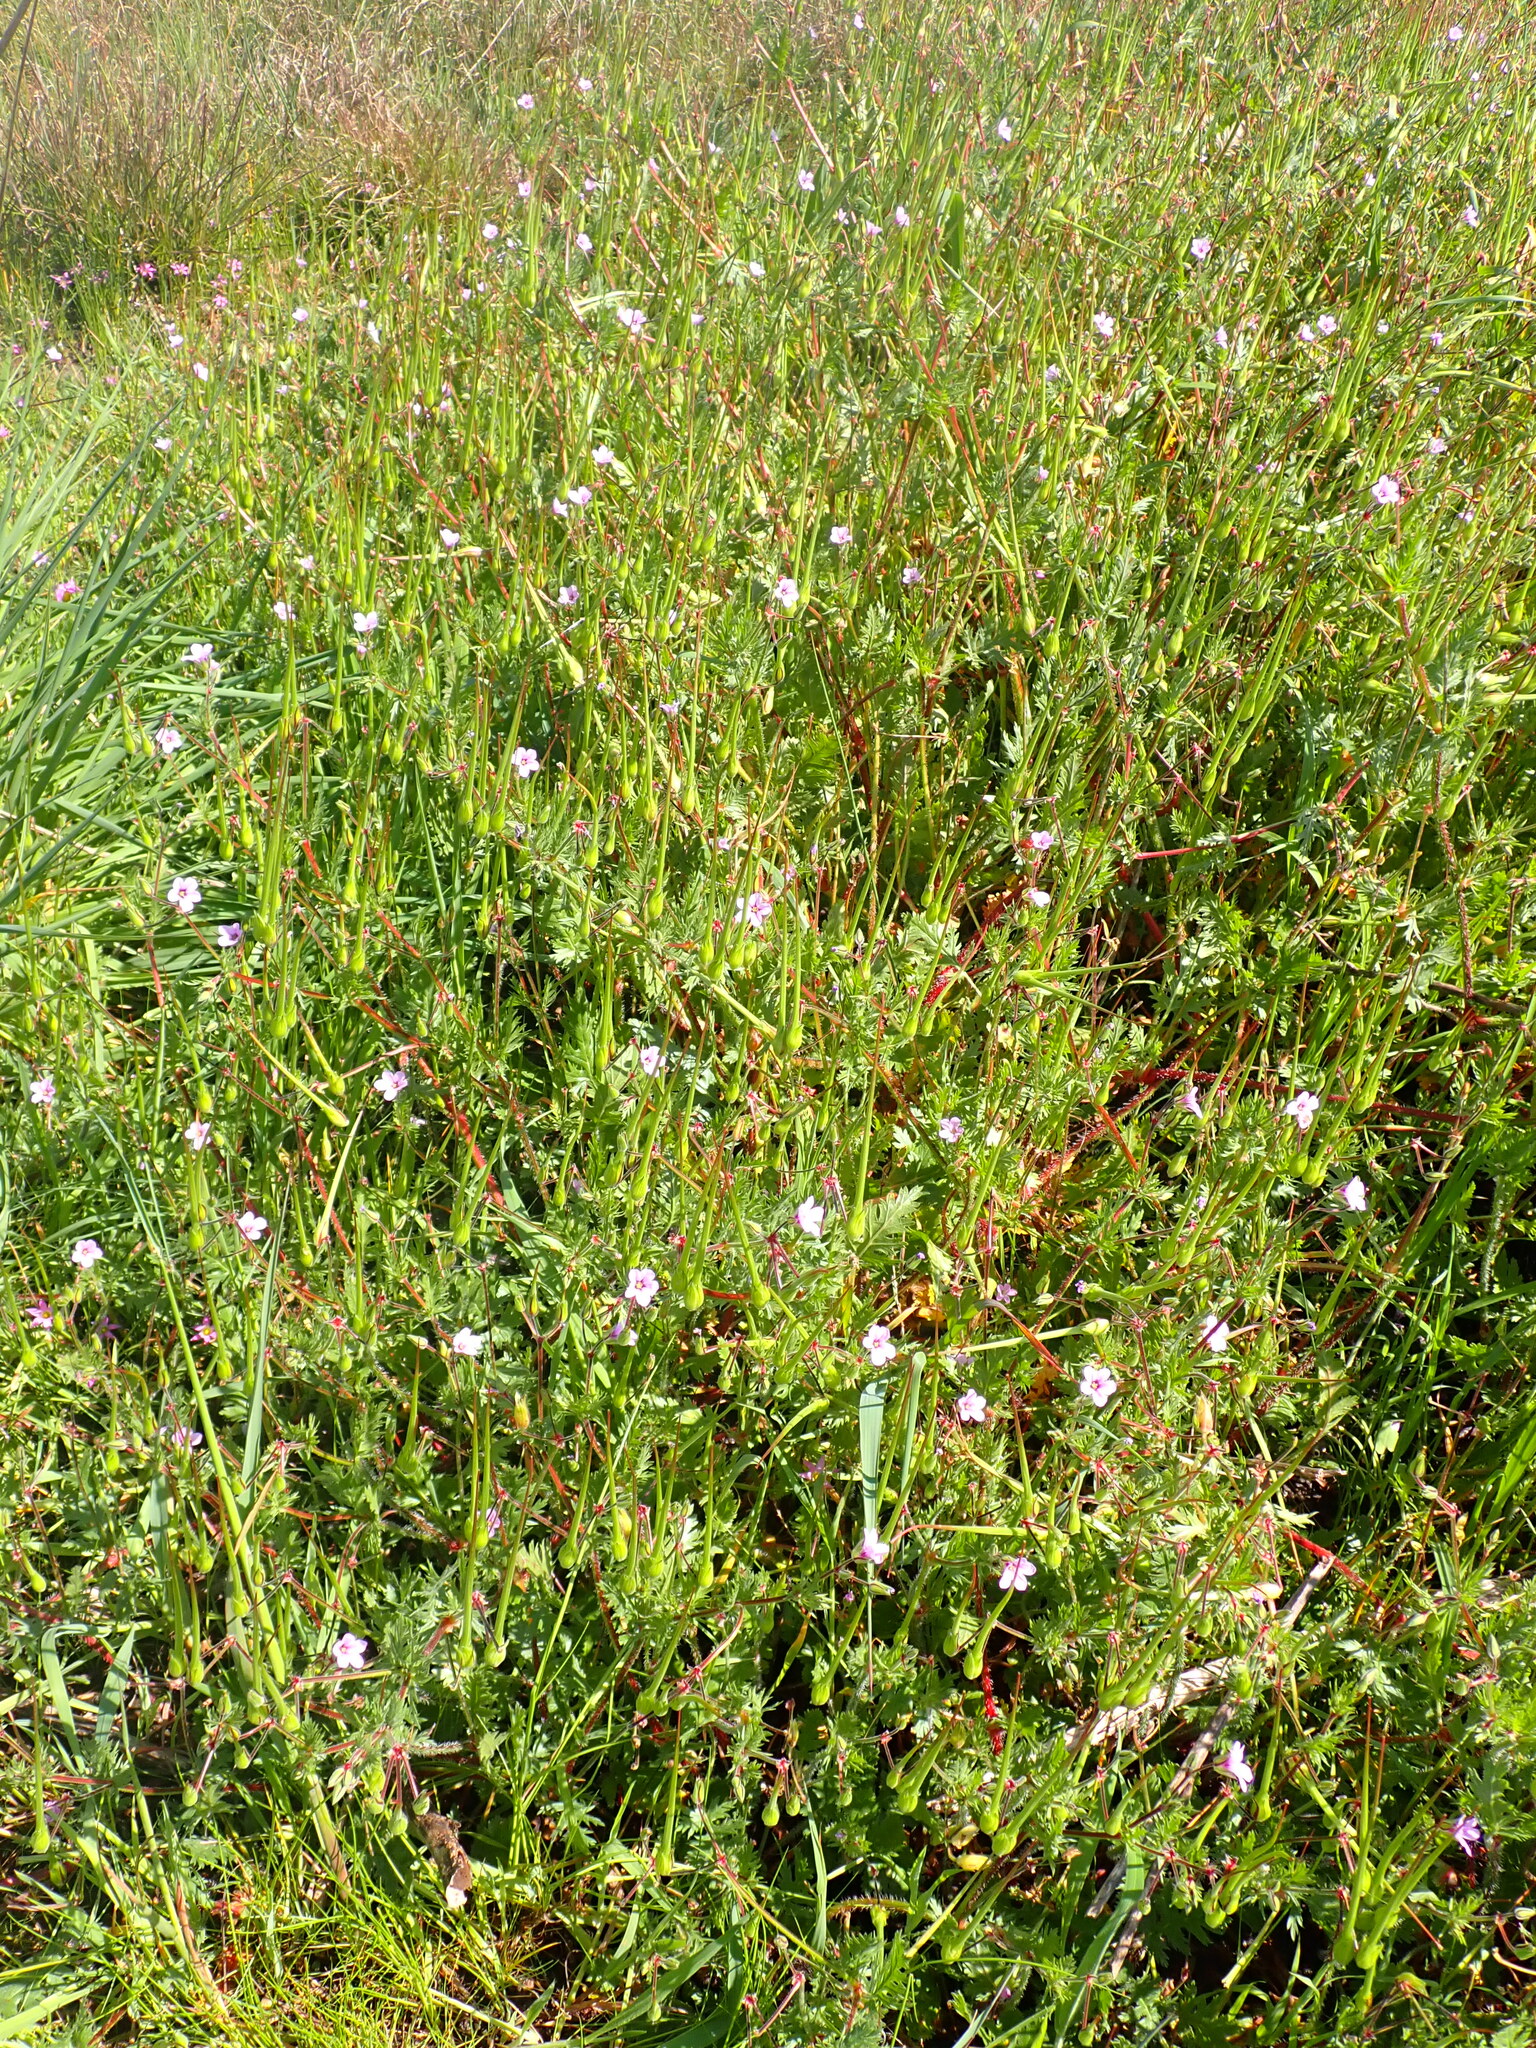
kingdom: Plantae
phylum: Tracheophyta
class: Magnoliopsida
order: Geraniales
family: Geraniaceae
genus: Erodium
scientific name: Erodium botrys
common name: Mediterranean stork's-bill
